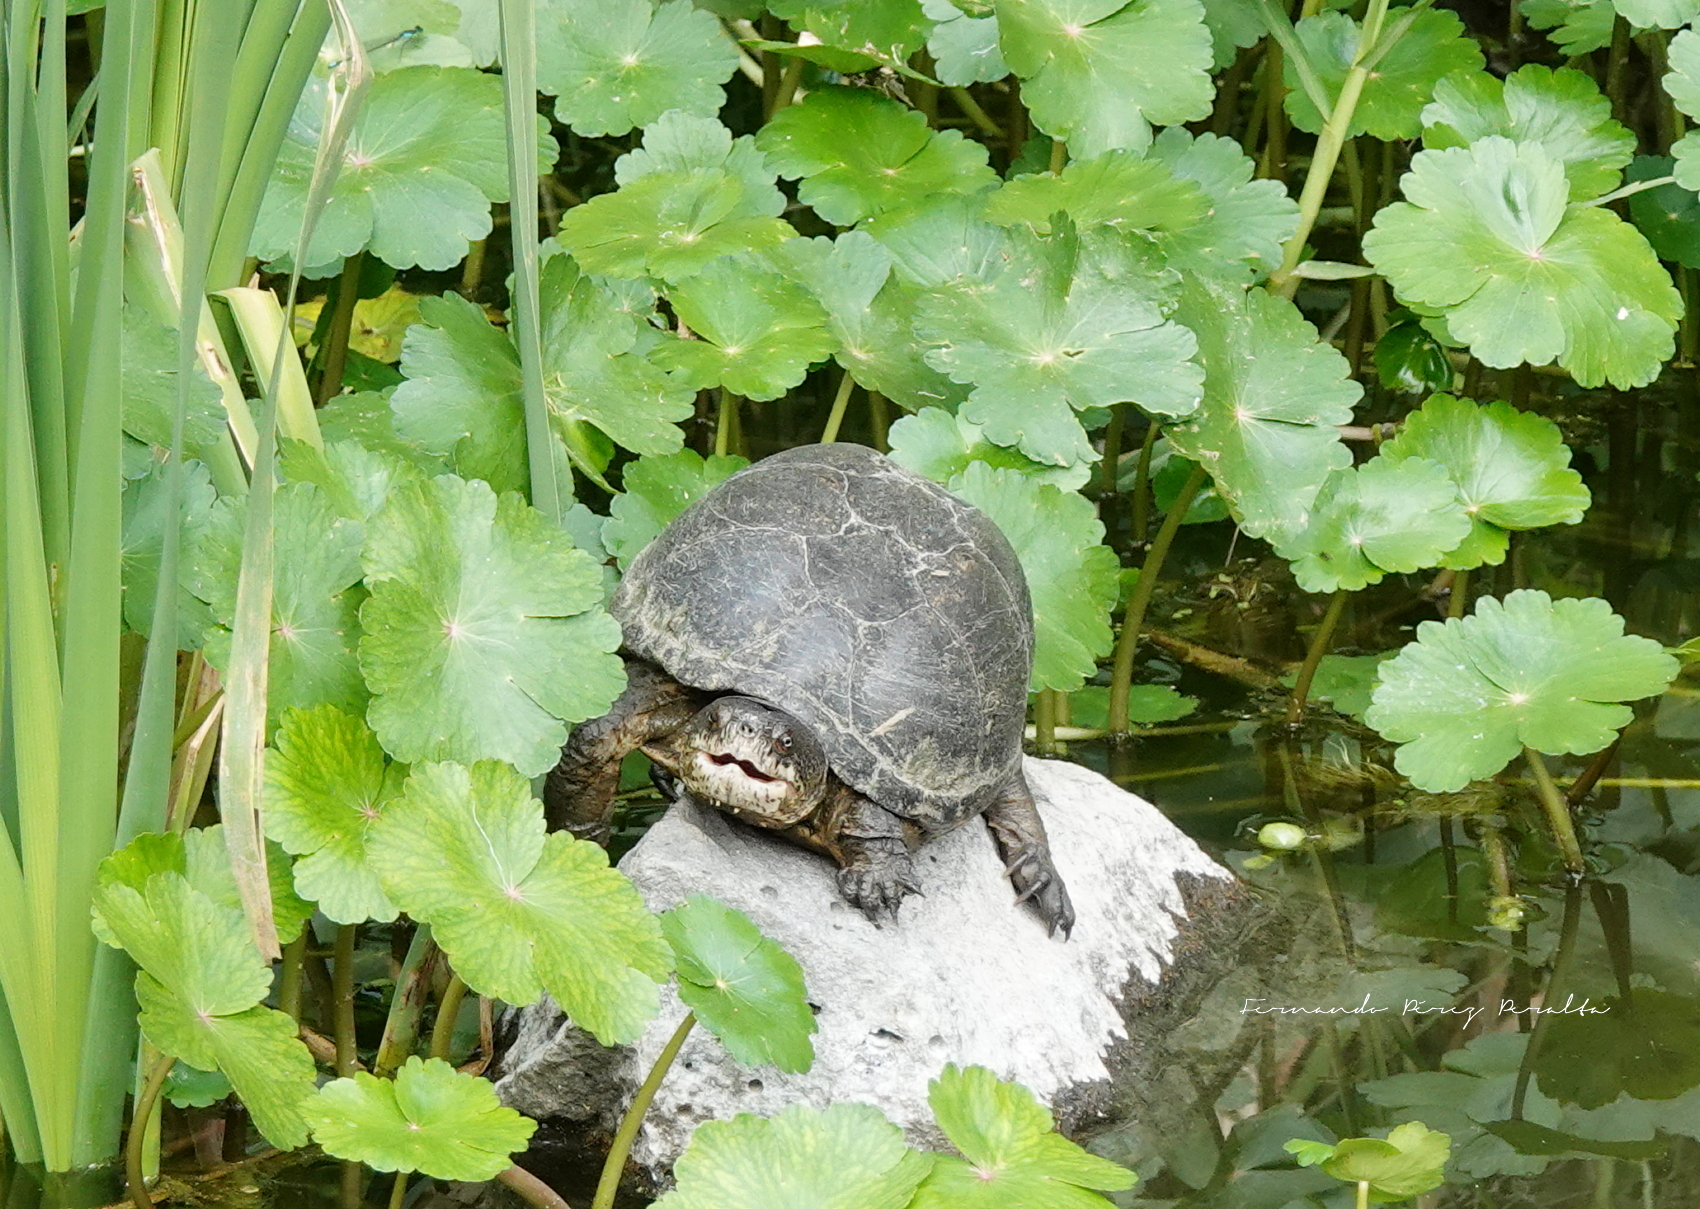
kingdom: Animalia
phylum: Chordata
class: Testudines
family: Kinosternidae
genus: Kinosternon
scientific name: Kinosternon integrum
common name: Mexican mud turtle
